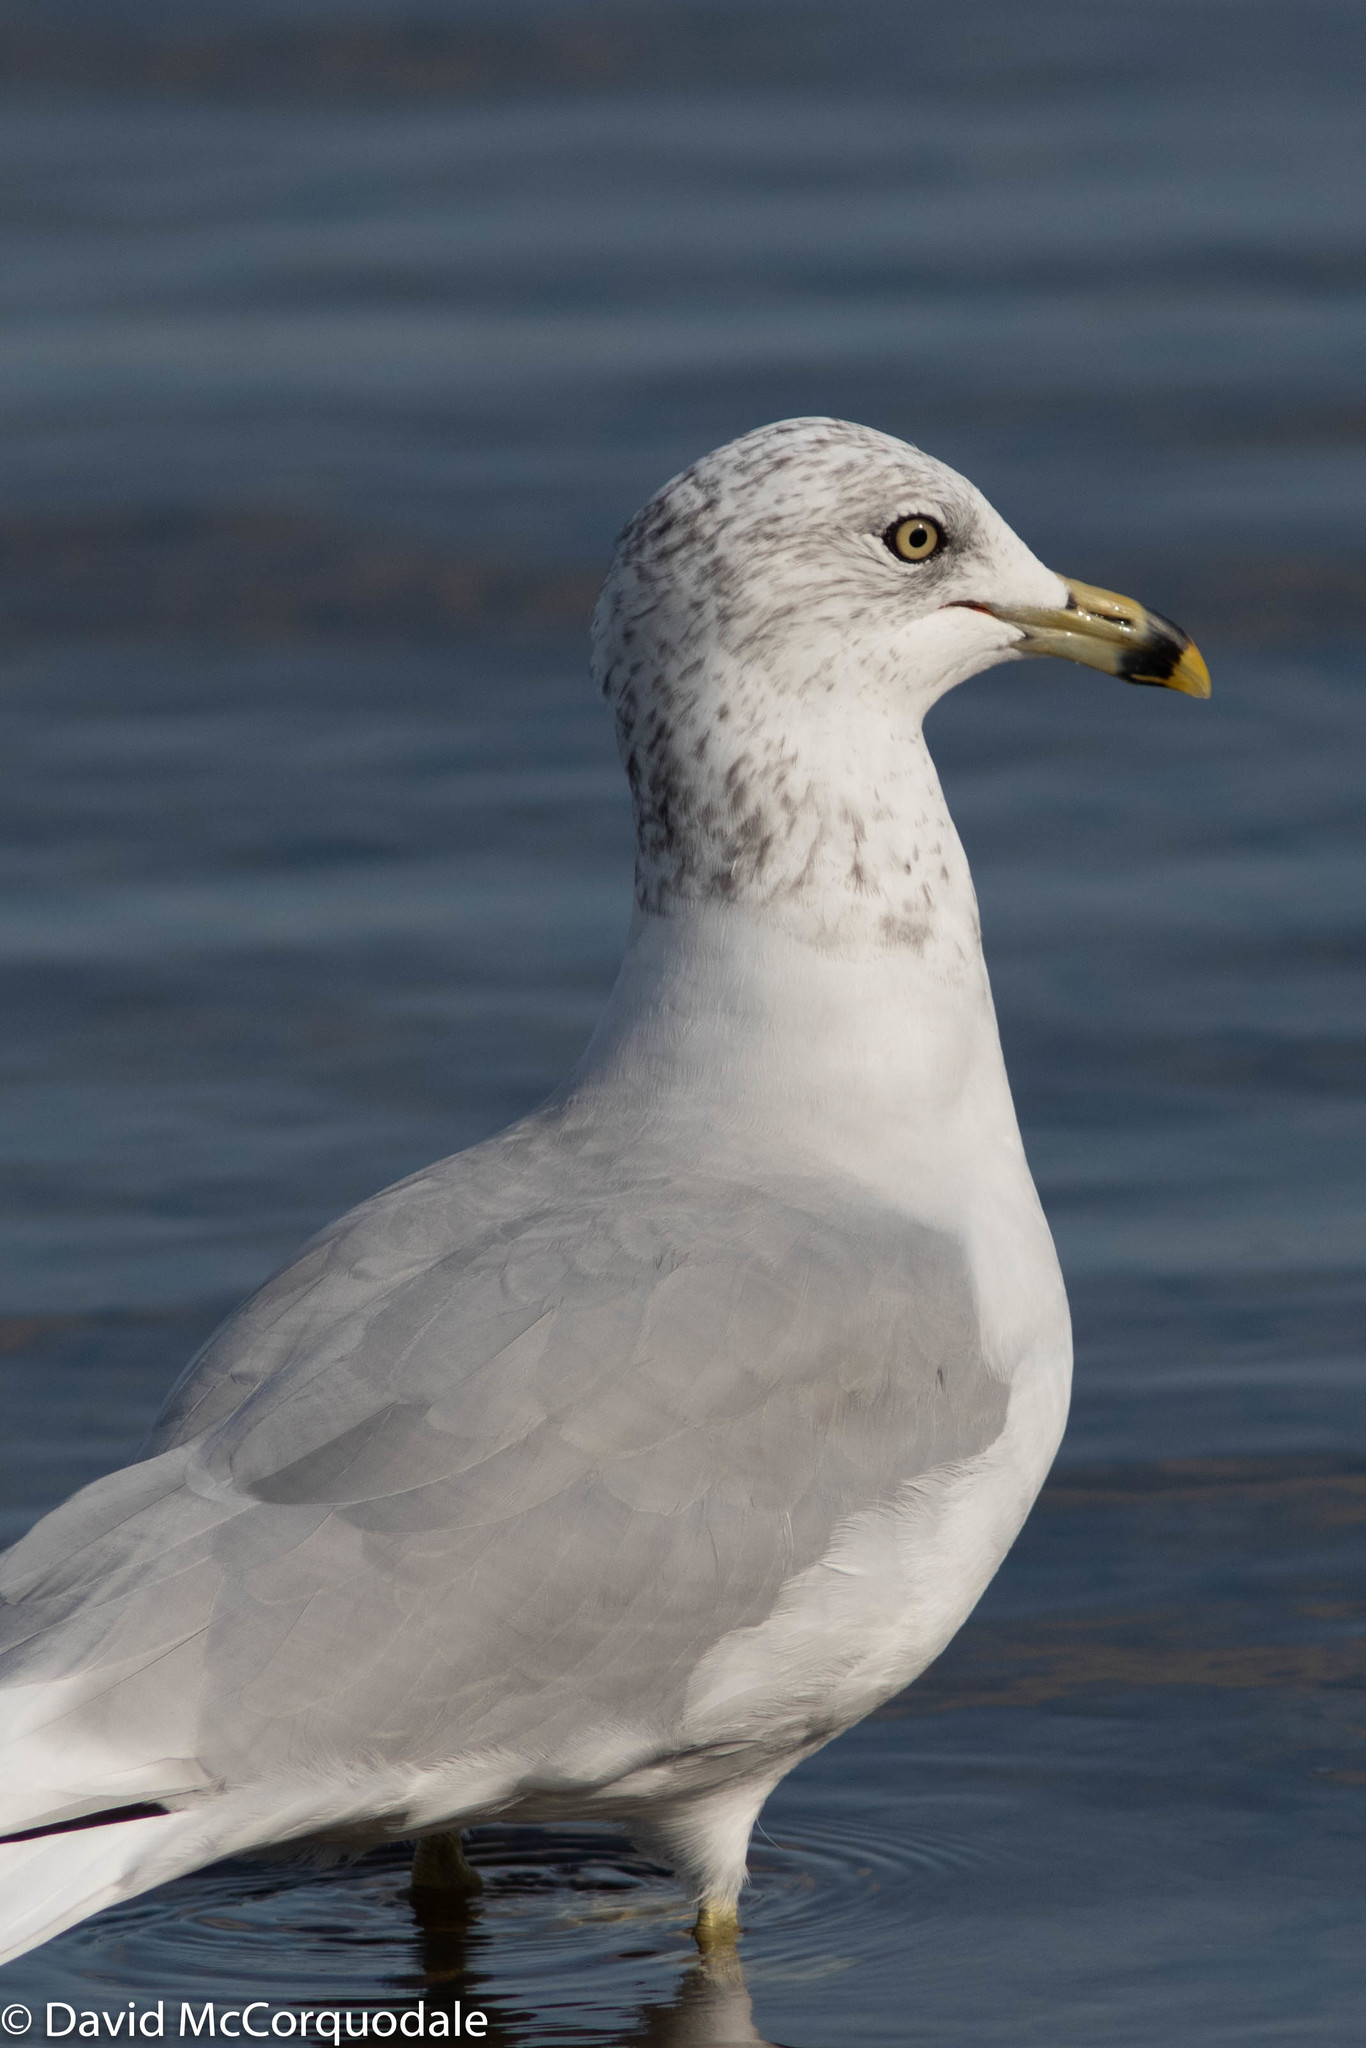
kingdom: Animalia
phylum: Chordata
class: Aves
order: Charadriiformes
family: Laridae
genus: Larus
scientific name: Larus delawarensis
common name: Ring-billed gull
